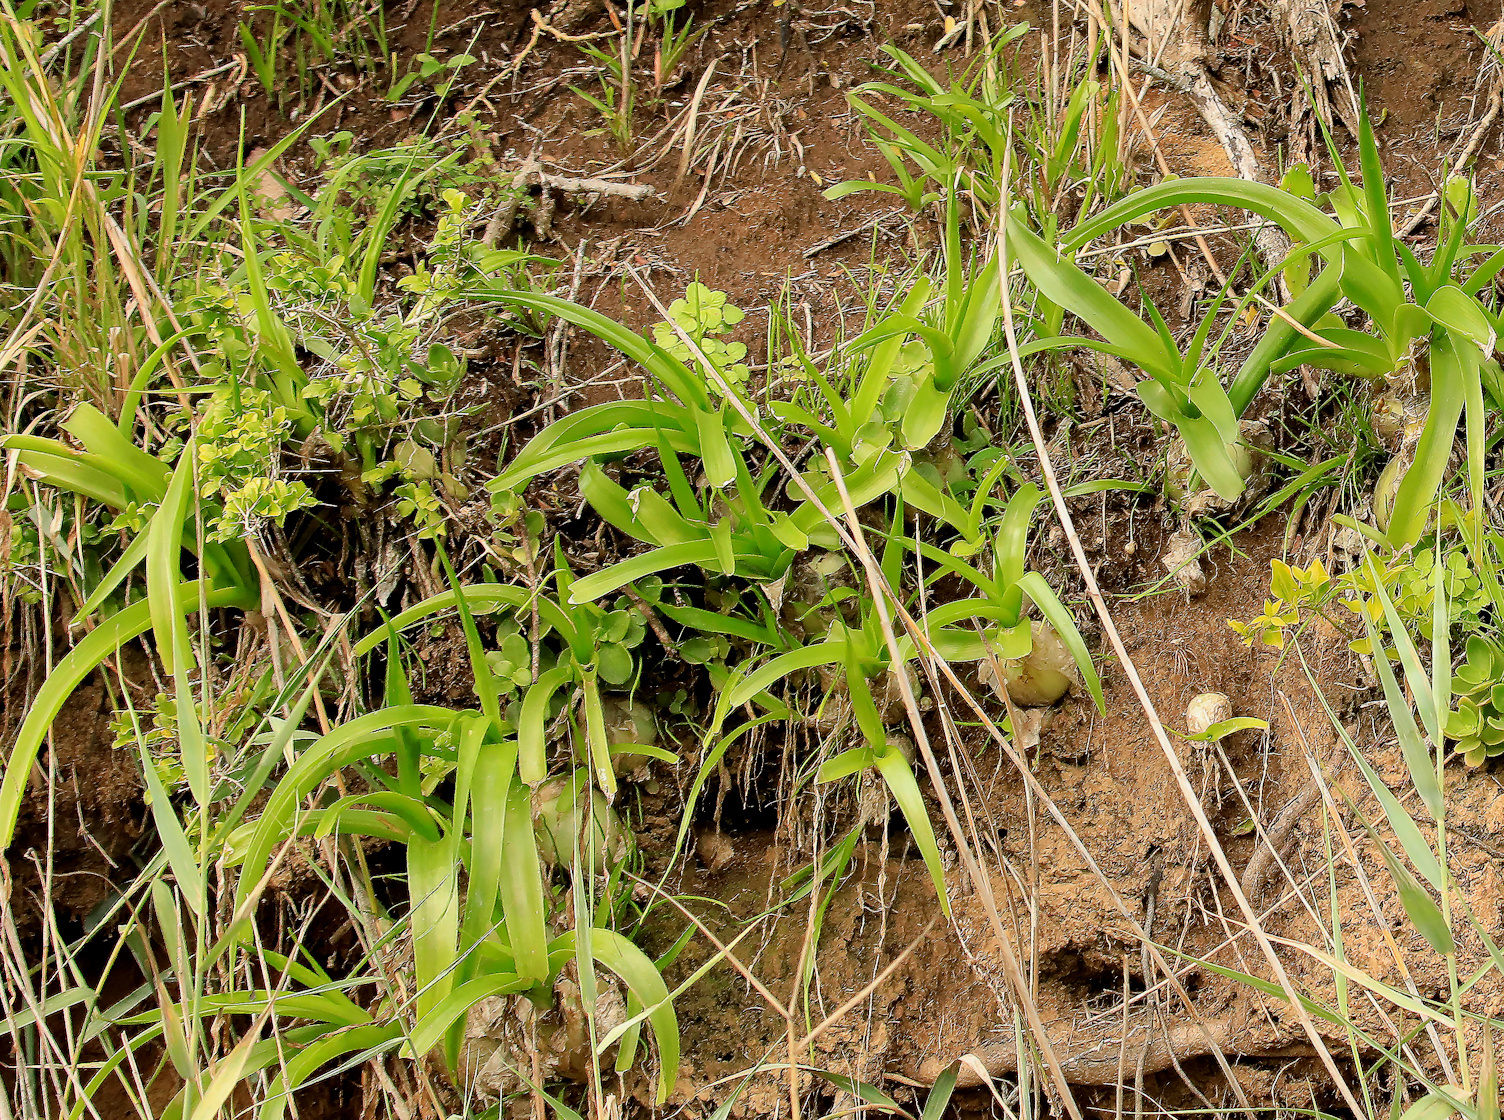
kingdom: Plantae
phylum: Tracheophyta
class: Liliopsida
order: Asparagales
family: Asparagaceae
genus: Albuca
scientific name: Albuca bracteata
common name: Sea-onion
